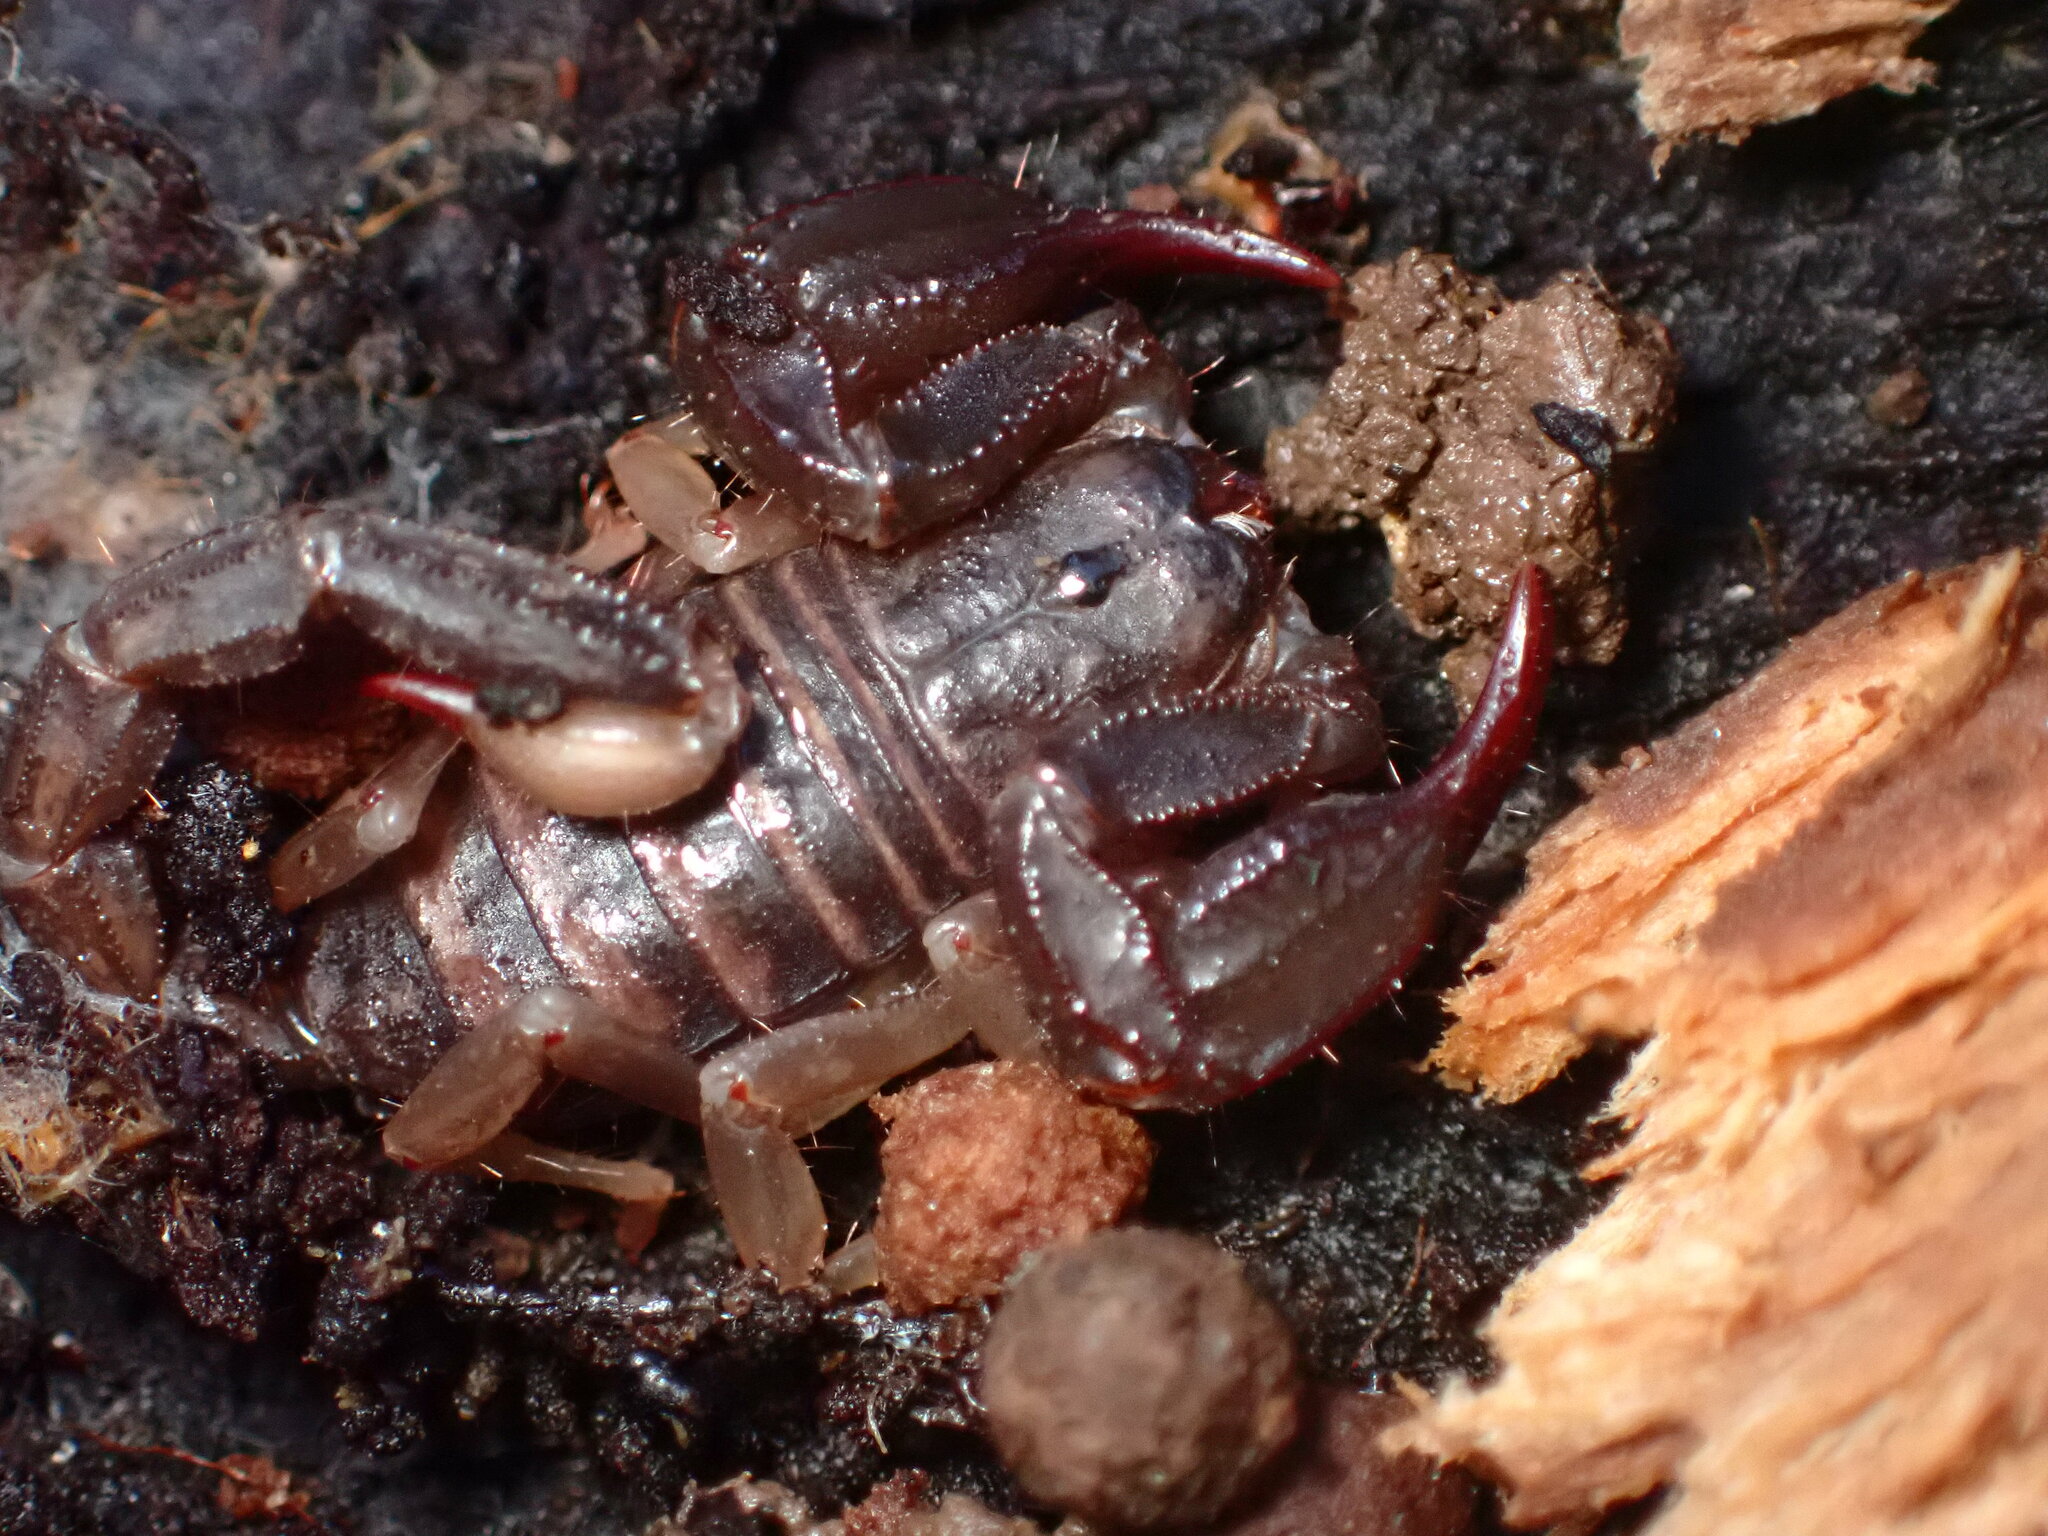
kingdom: Animalia
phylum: Arthropoda
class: Arachnida
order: Scorpiones
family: Chactidae
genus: Uroctonus
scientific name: Uroctonus mordax
